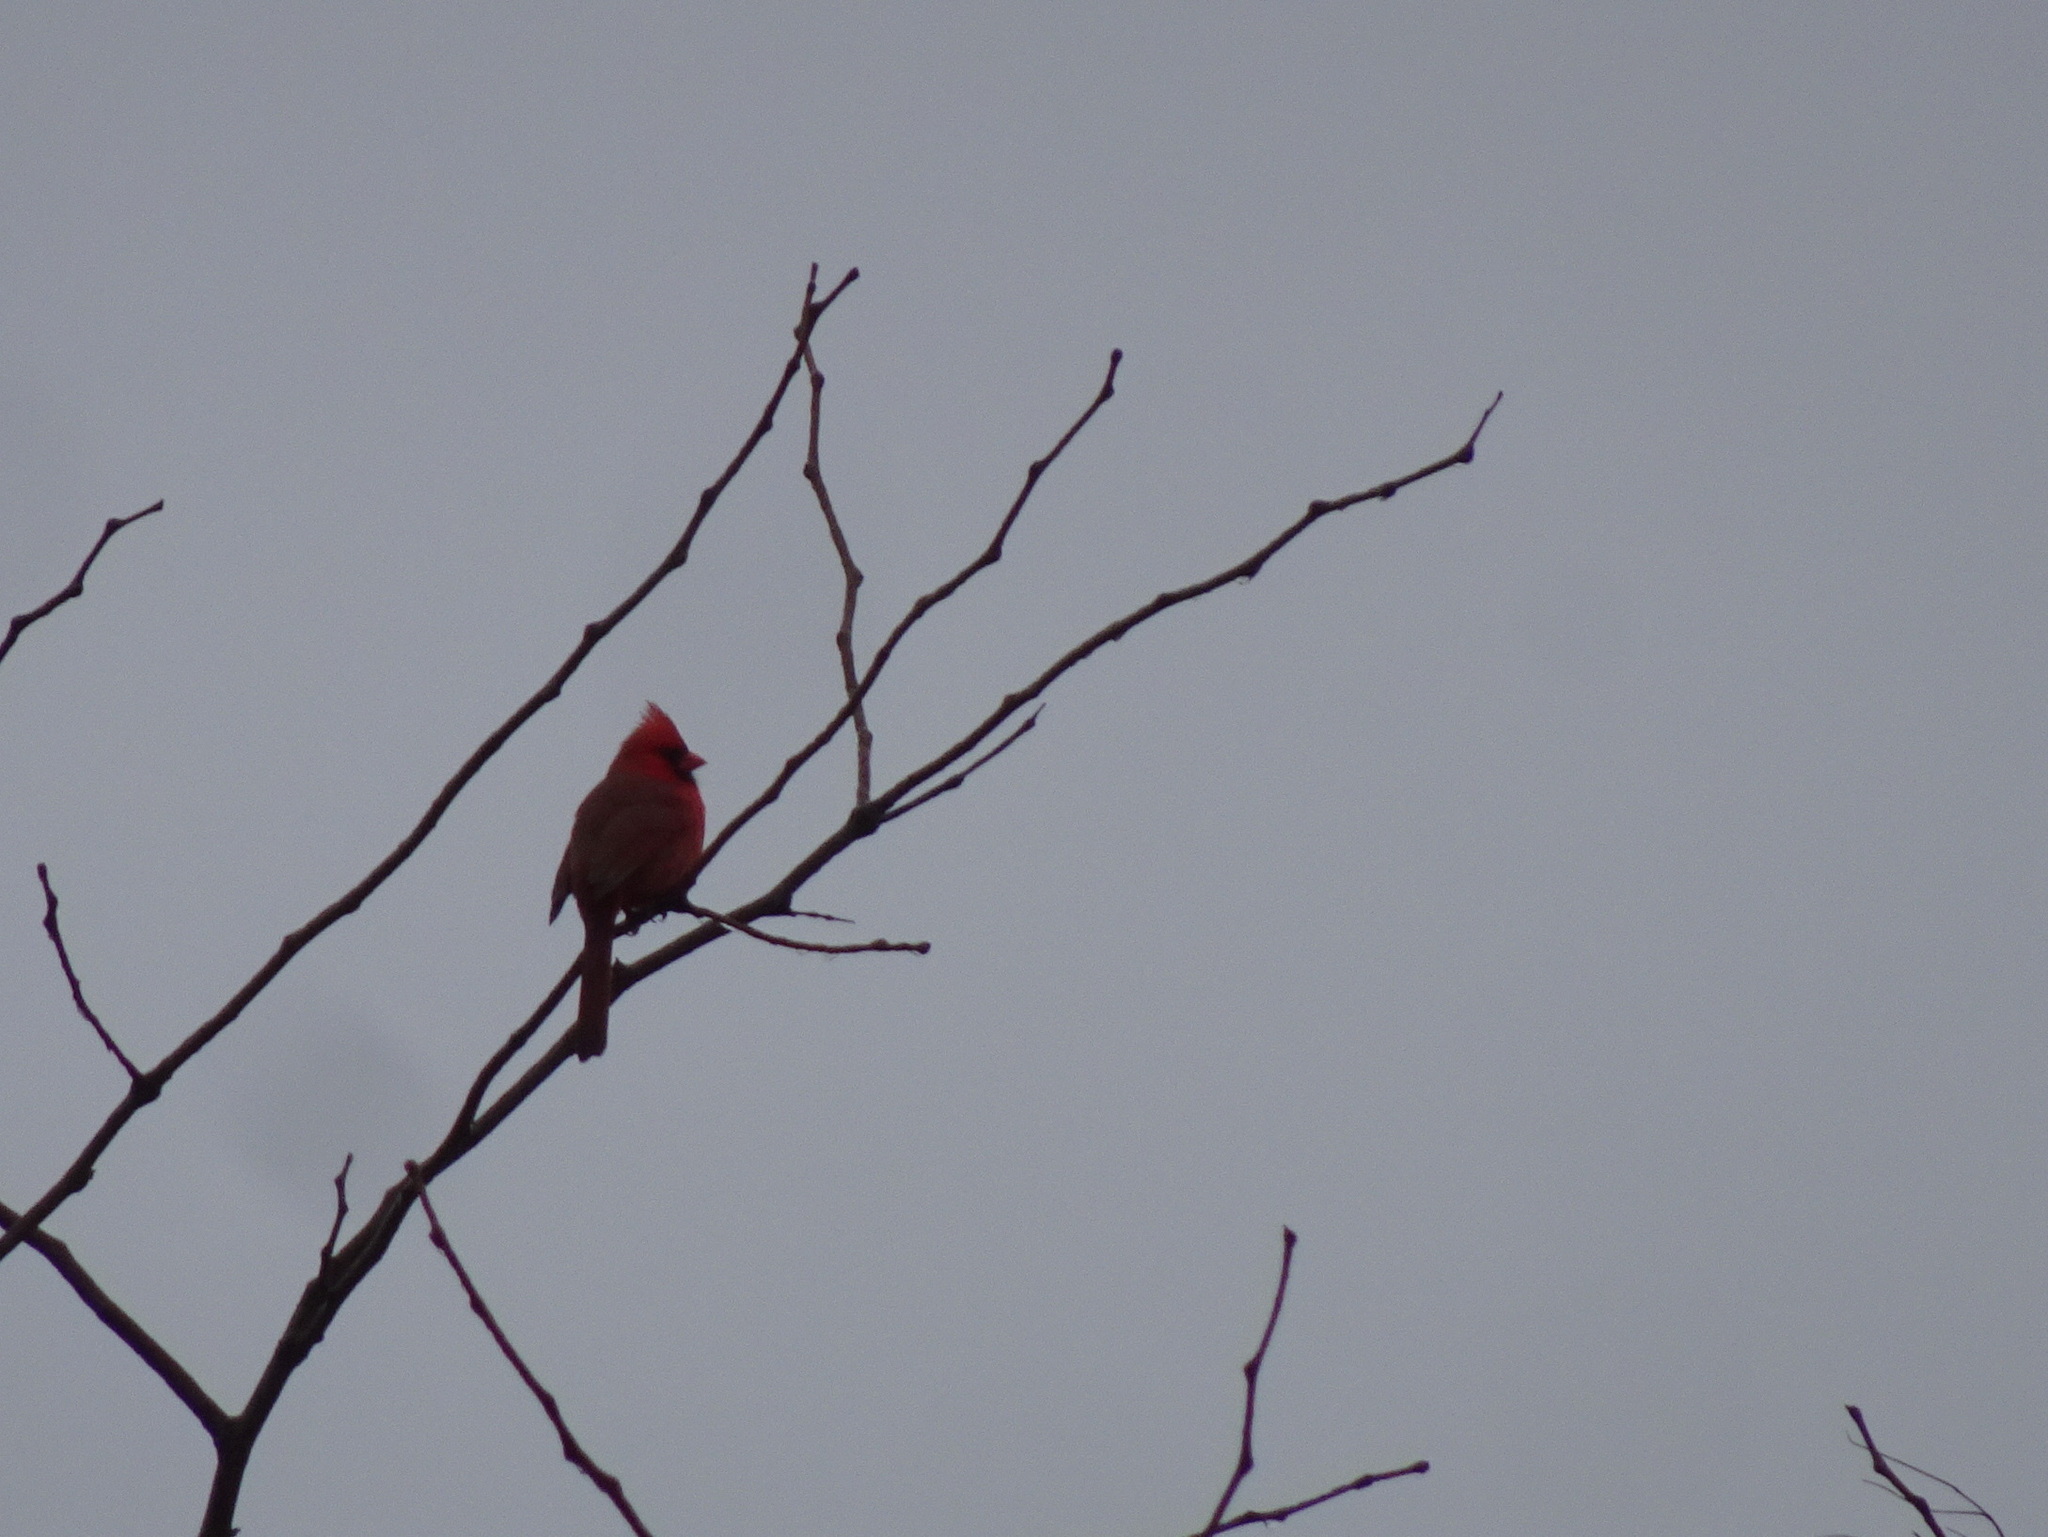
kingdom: Animalia
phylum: Chordata
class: Aves
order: Passeriformes
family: Cardinalidae
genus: Cardinalis
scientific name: Cardinalis cardinalis
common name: Northern cardinal
